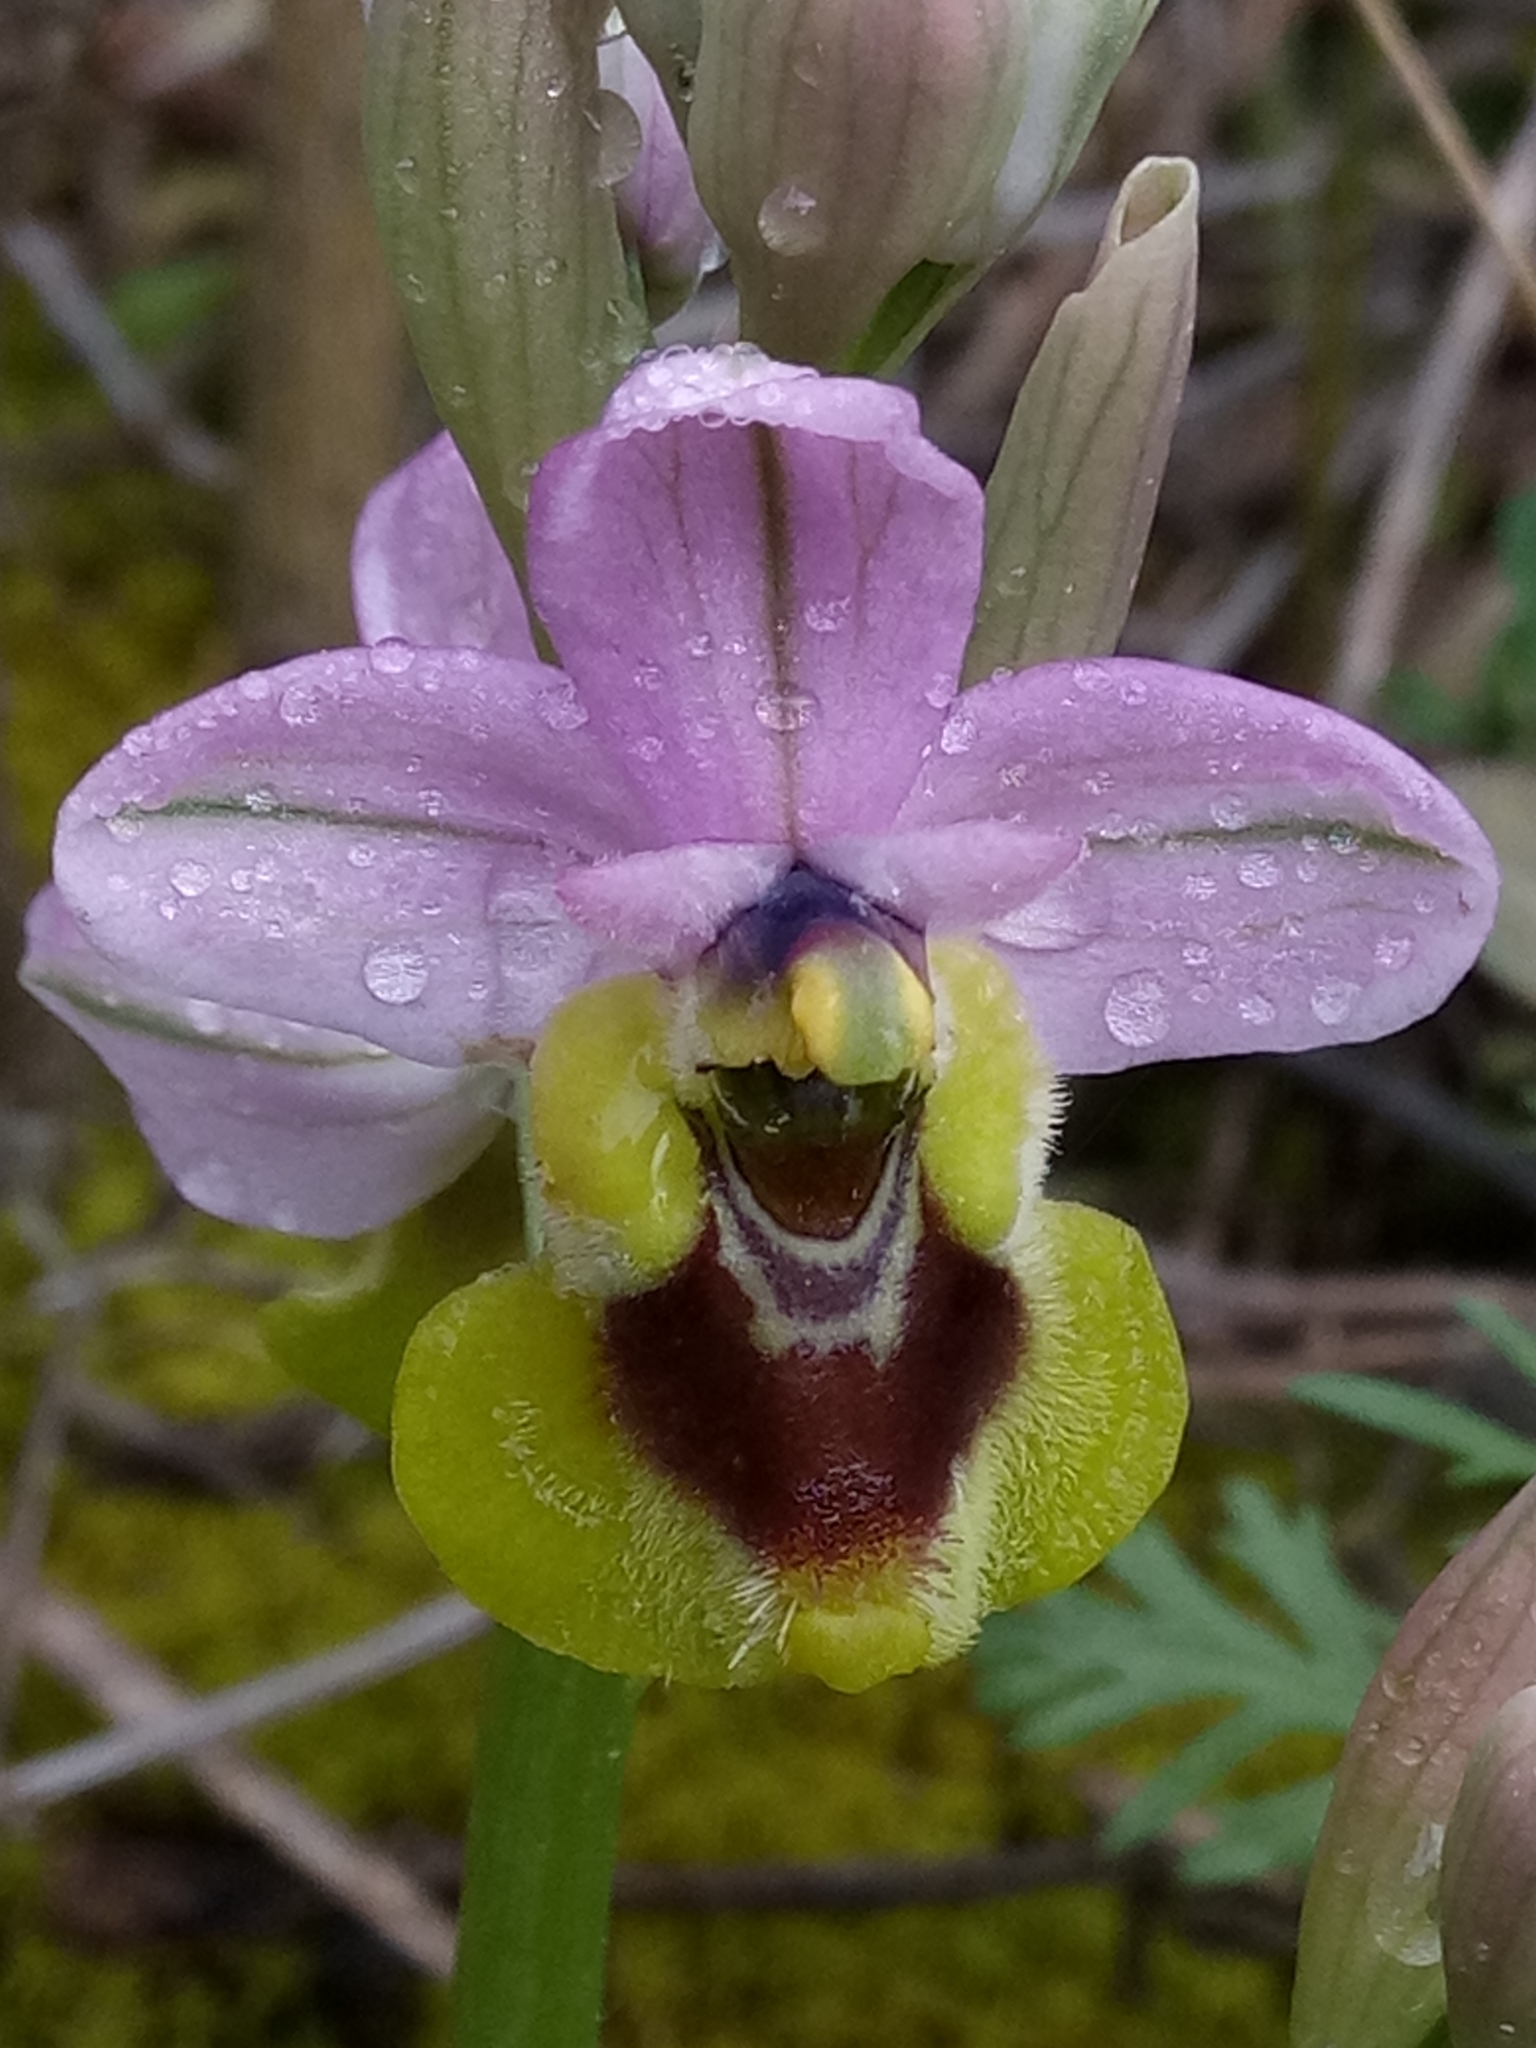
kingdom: Plantae
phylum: Tracheophyta
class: Liliopsida
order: Asparagales
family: Orchidaceae
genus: Ophrys
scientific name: Ophrys tenthredinifera
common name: Sawfly orchid
